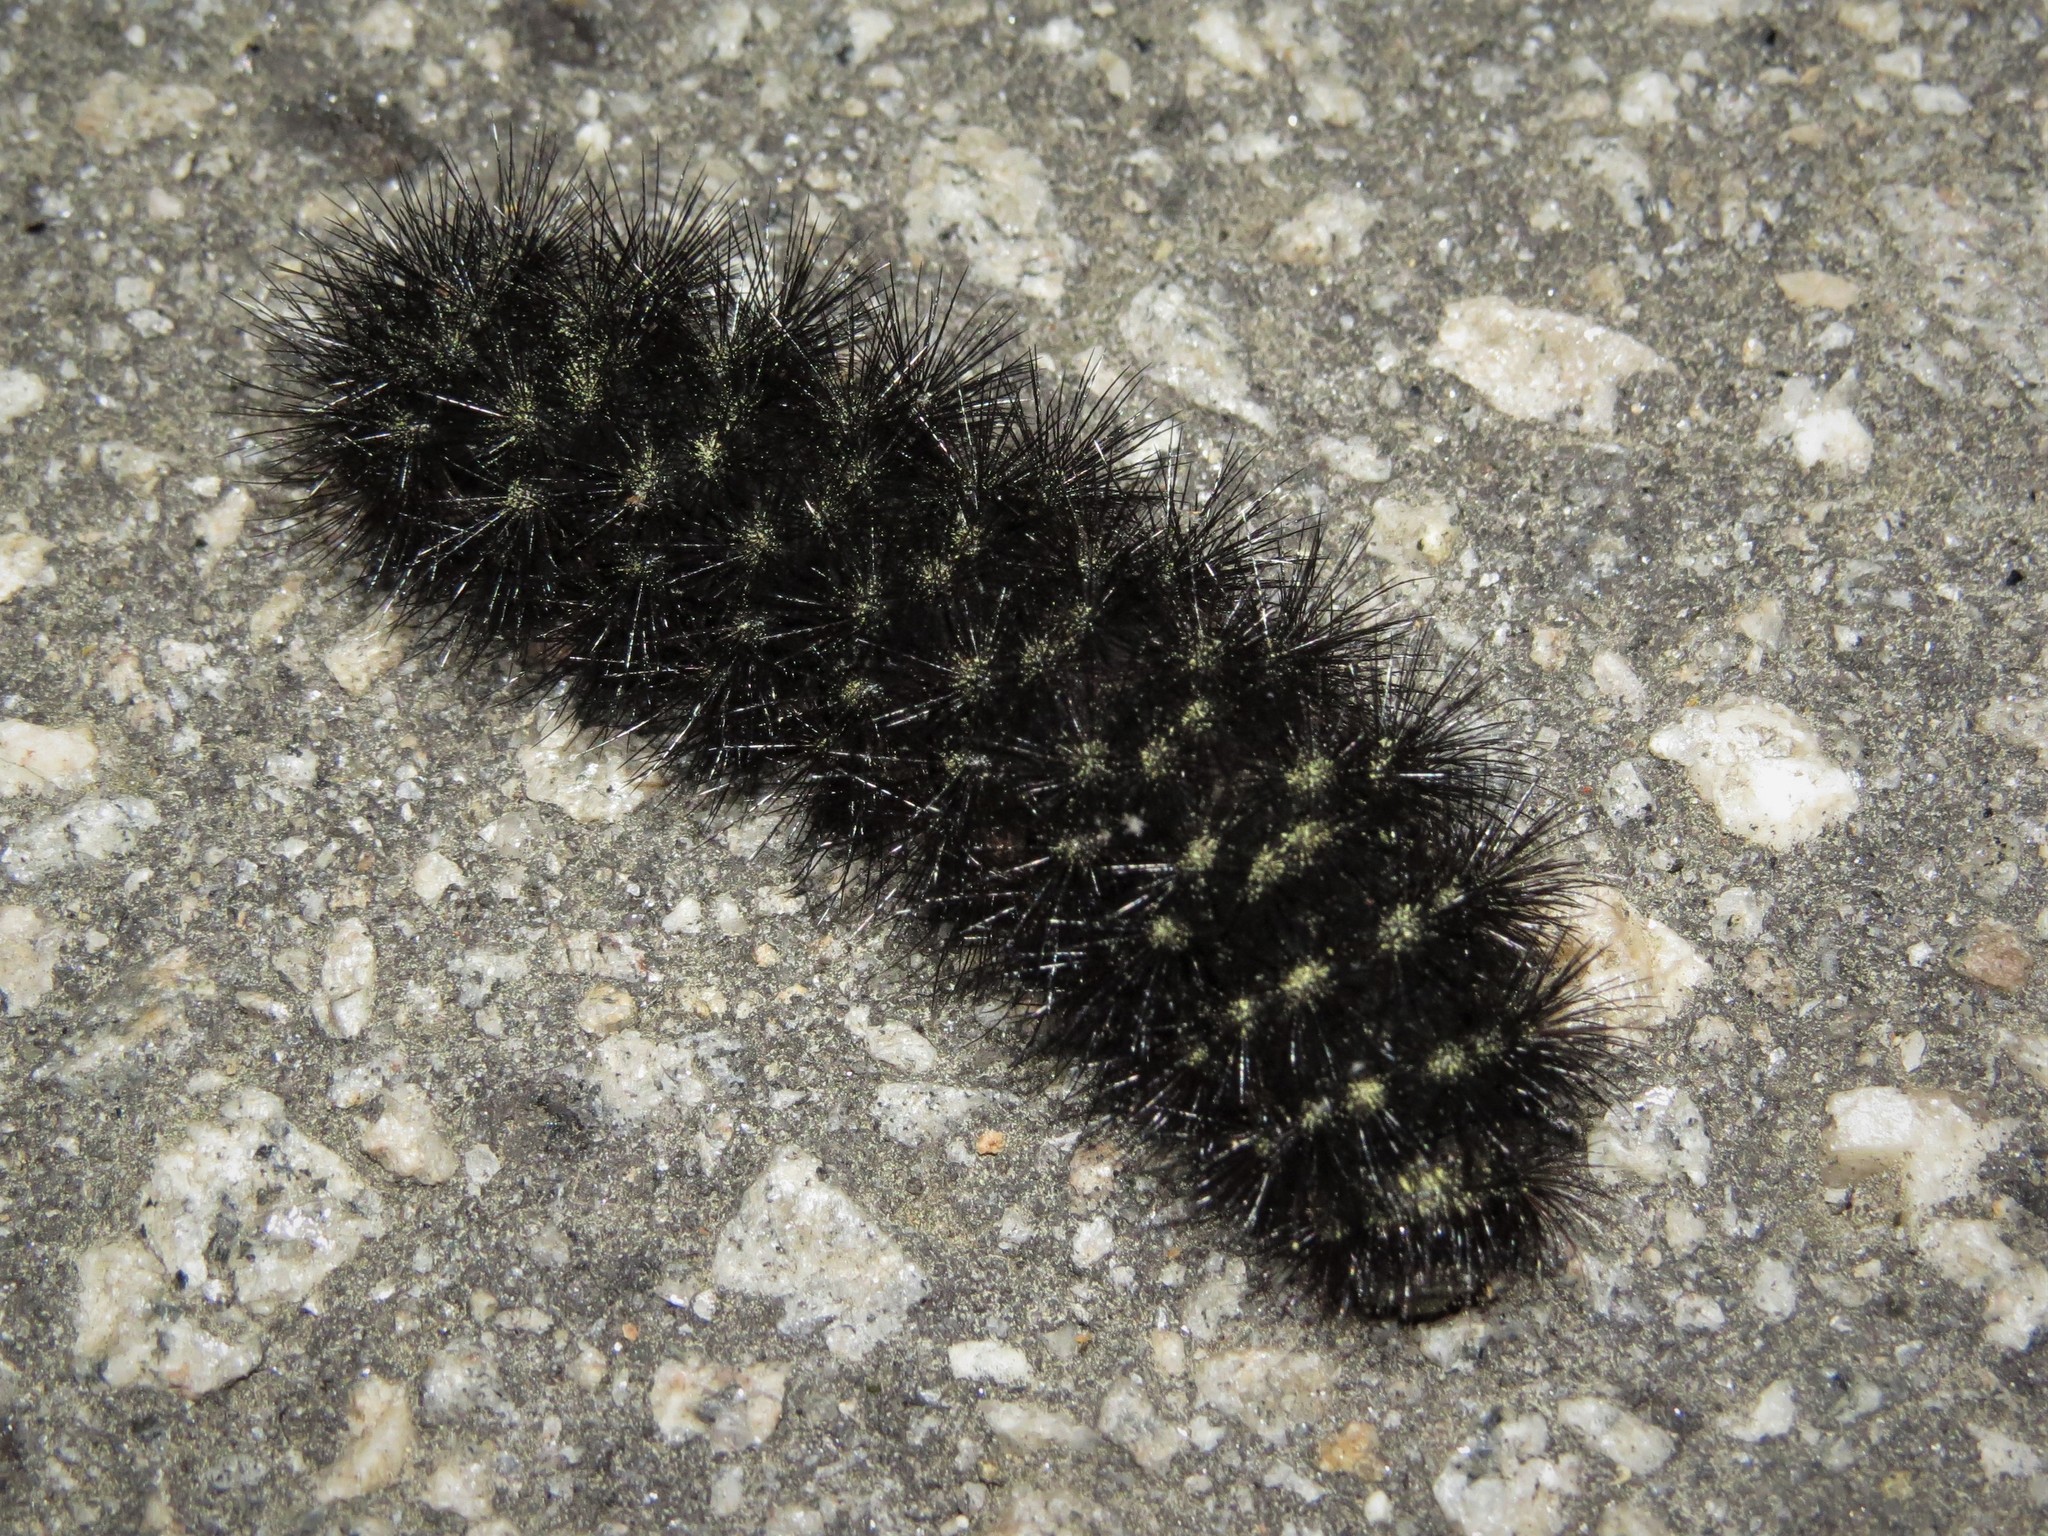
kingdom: Animalia
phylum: Arthropoda
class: Insecta
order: Lepidoptera
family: Erebidae
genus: Hypercompe
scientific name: Hypercompe scribonia
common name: Giant leopard moth
